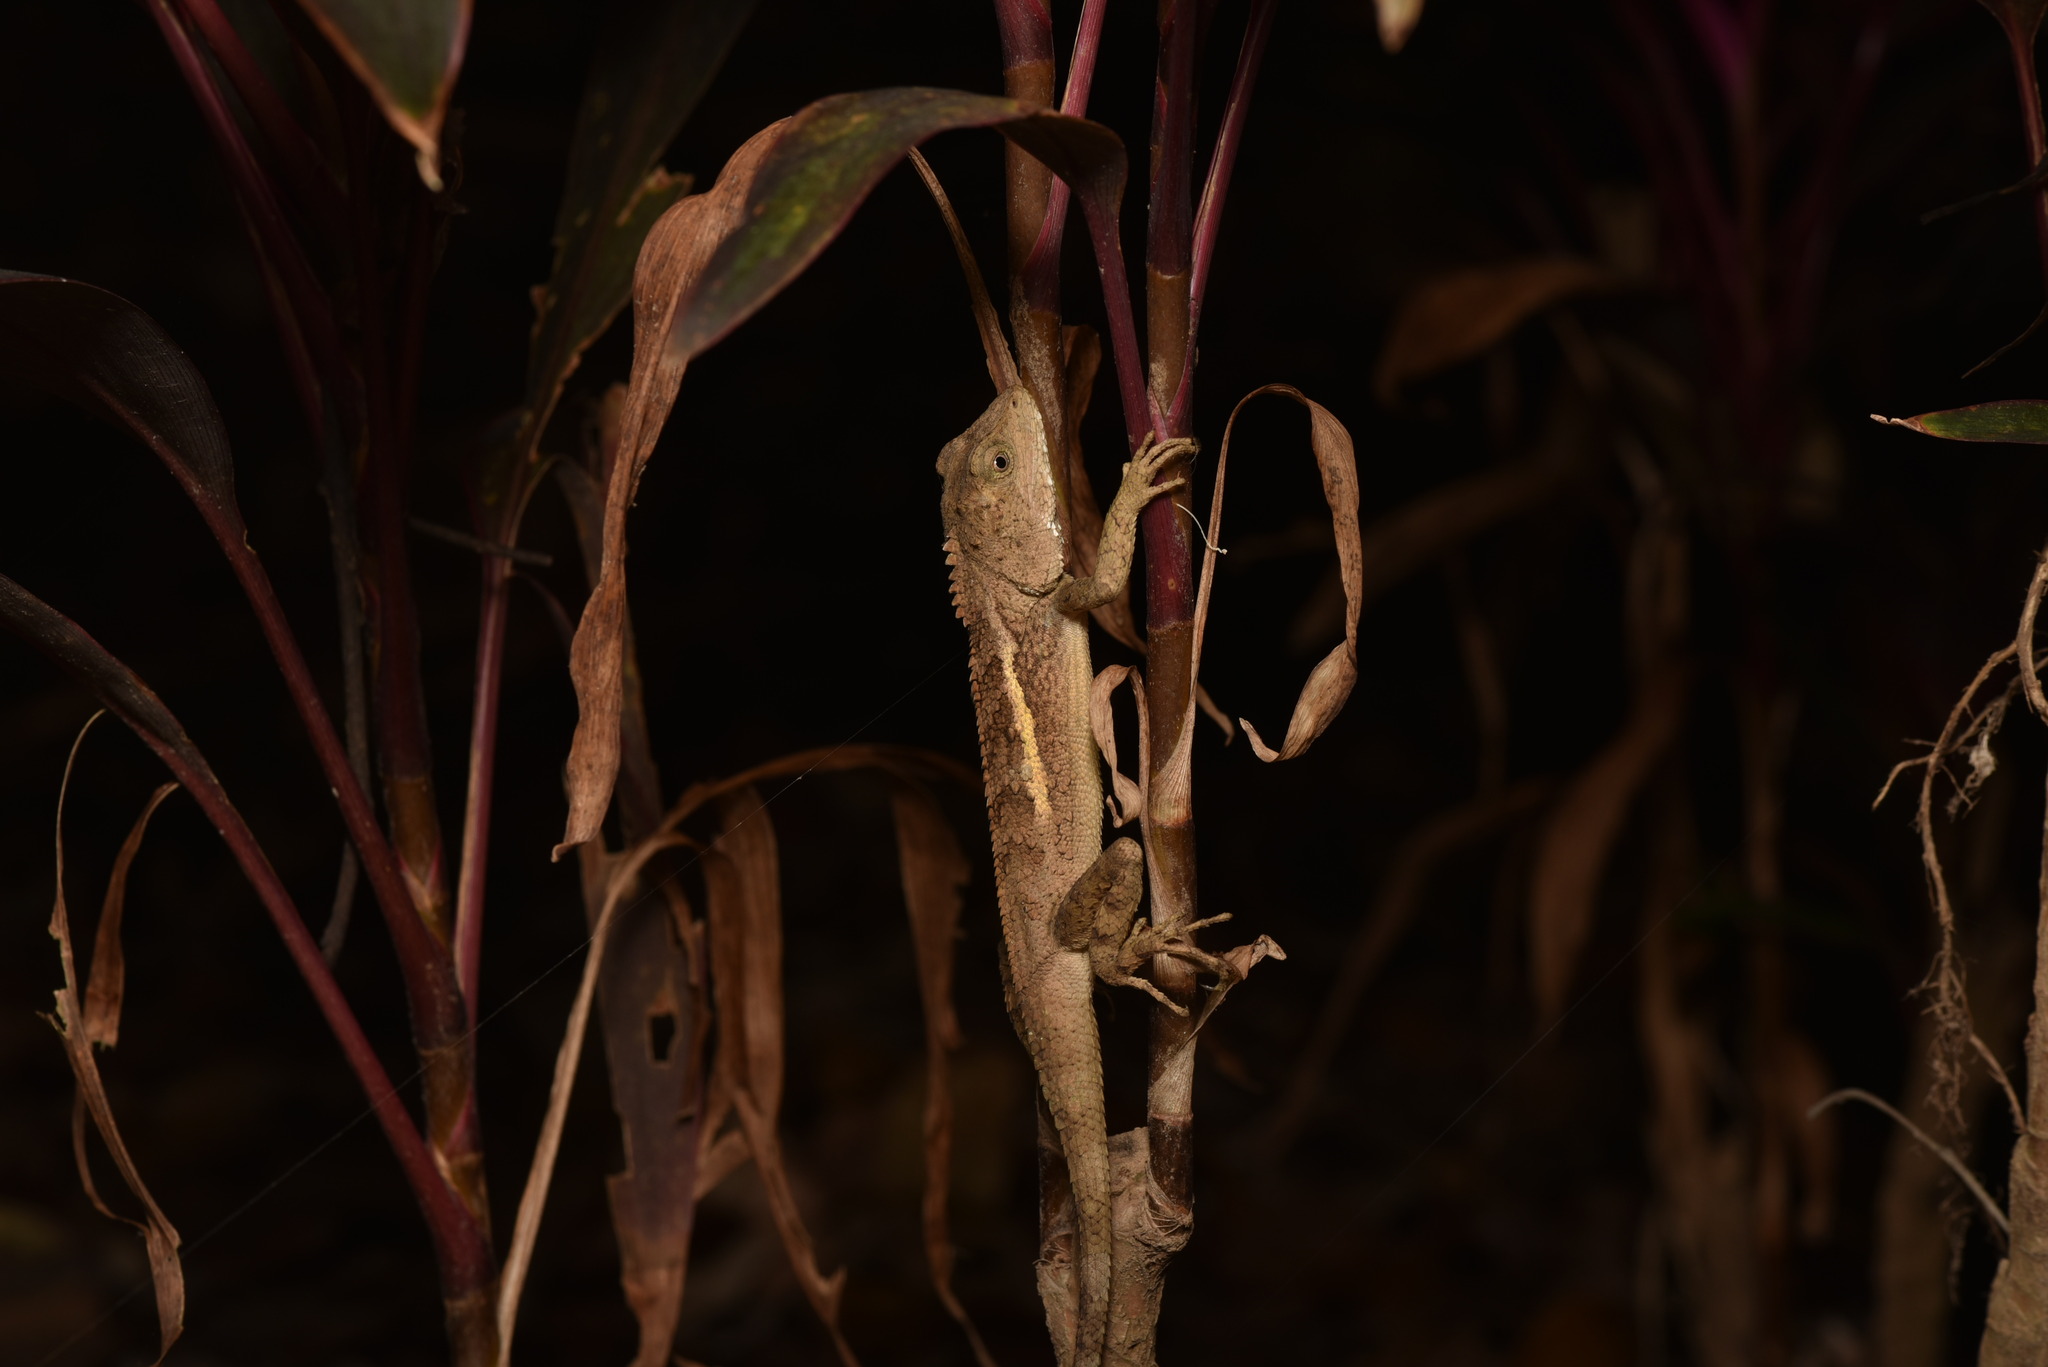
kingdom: Animalia
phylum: Chordata
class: Squamata
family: Agamidae
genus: Diploderma
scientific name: Diploderma swinhonis
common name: Taiwan japalure
